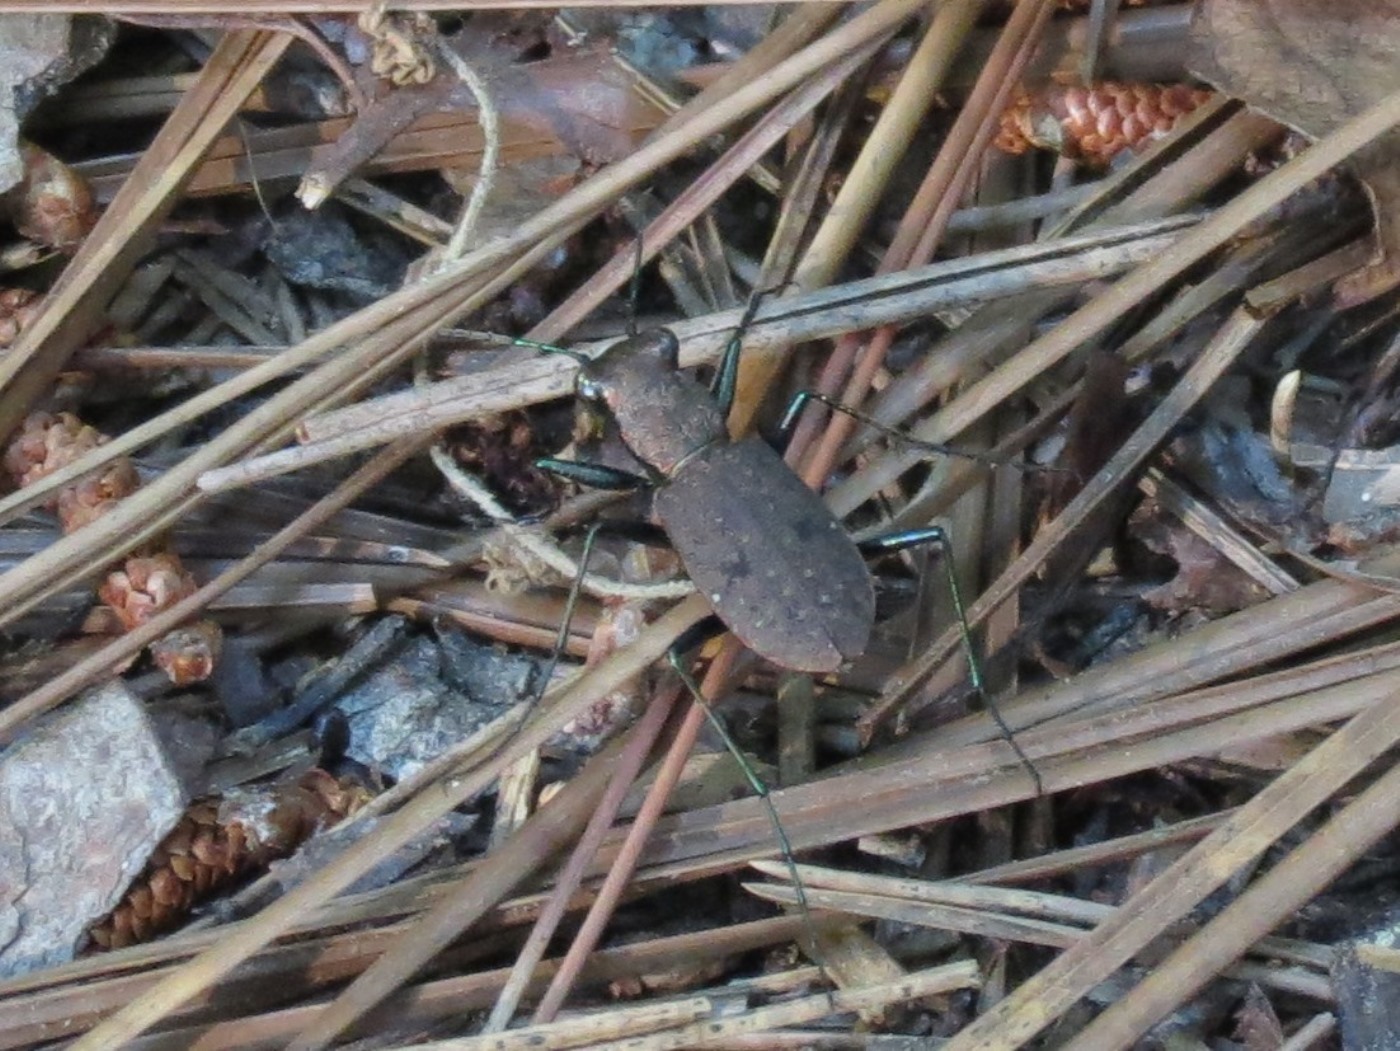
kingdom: Animalia
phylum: Arthropoda
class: Insecta
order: Coleoptera
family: Carabidae
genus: Cylindera
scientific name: Cylindera unipunctata
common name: One-spotted tiger beetle
